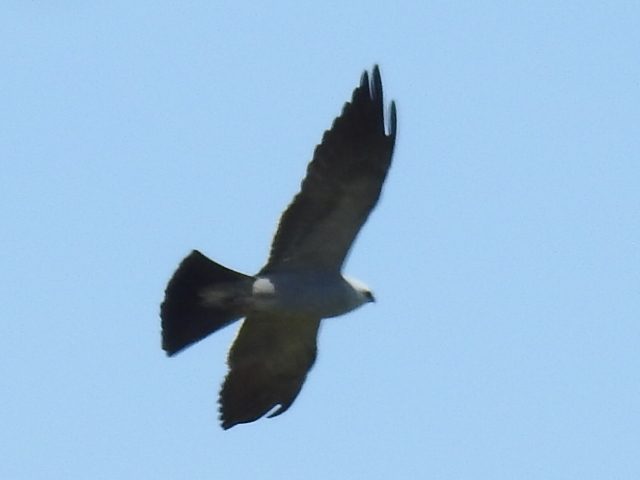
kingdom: Animalia
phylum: Chordata
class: Aves
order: Accipitriformes
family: Accipitridae
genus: Ictinia
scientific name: Ictinia mississippiensis
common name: Mississippi kite
